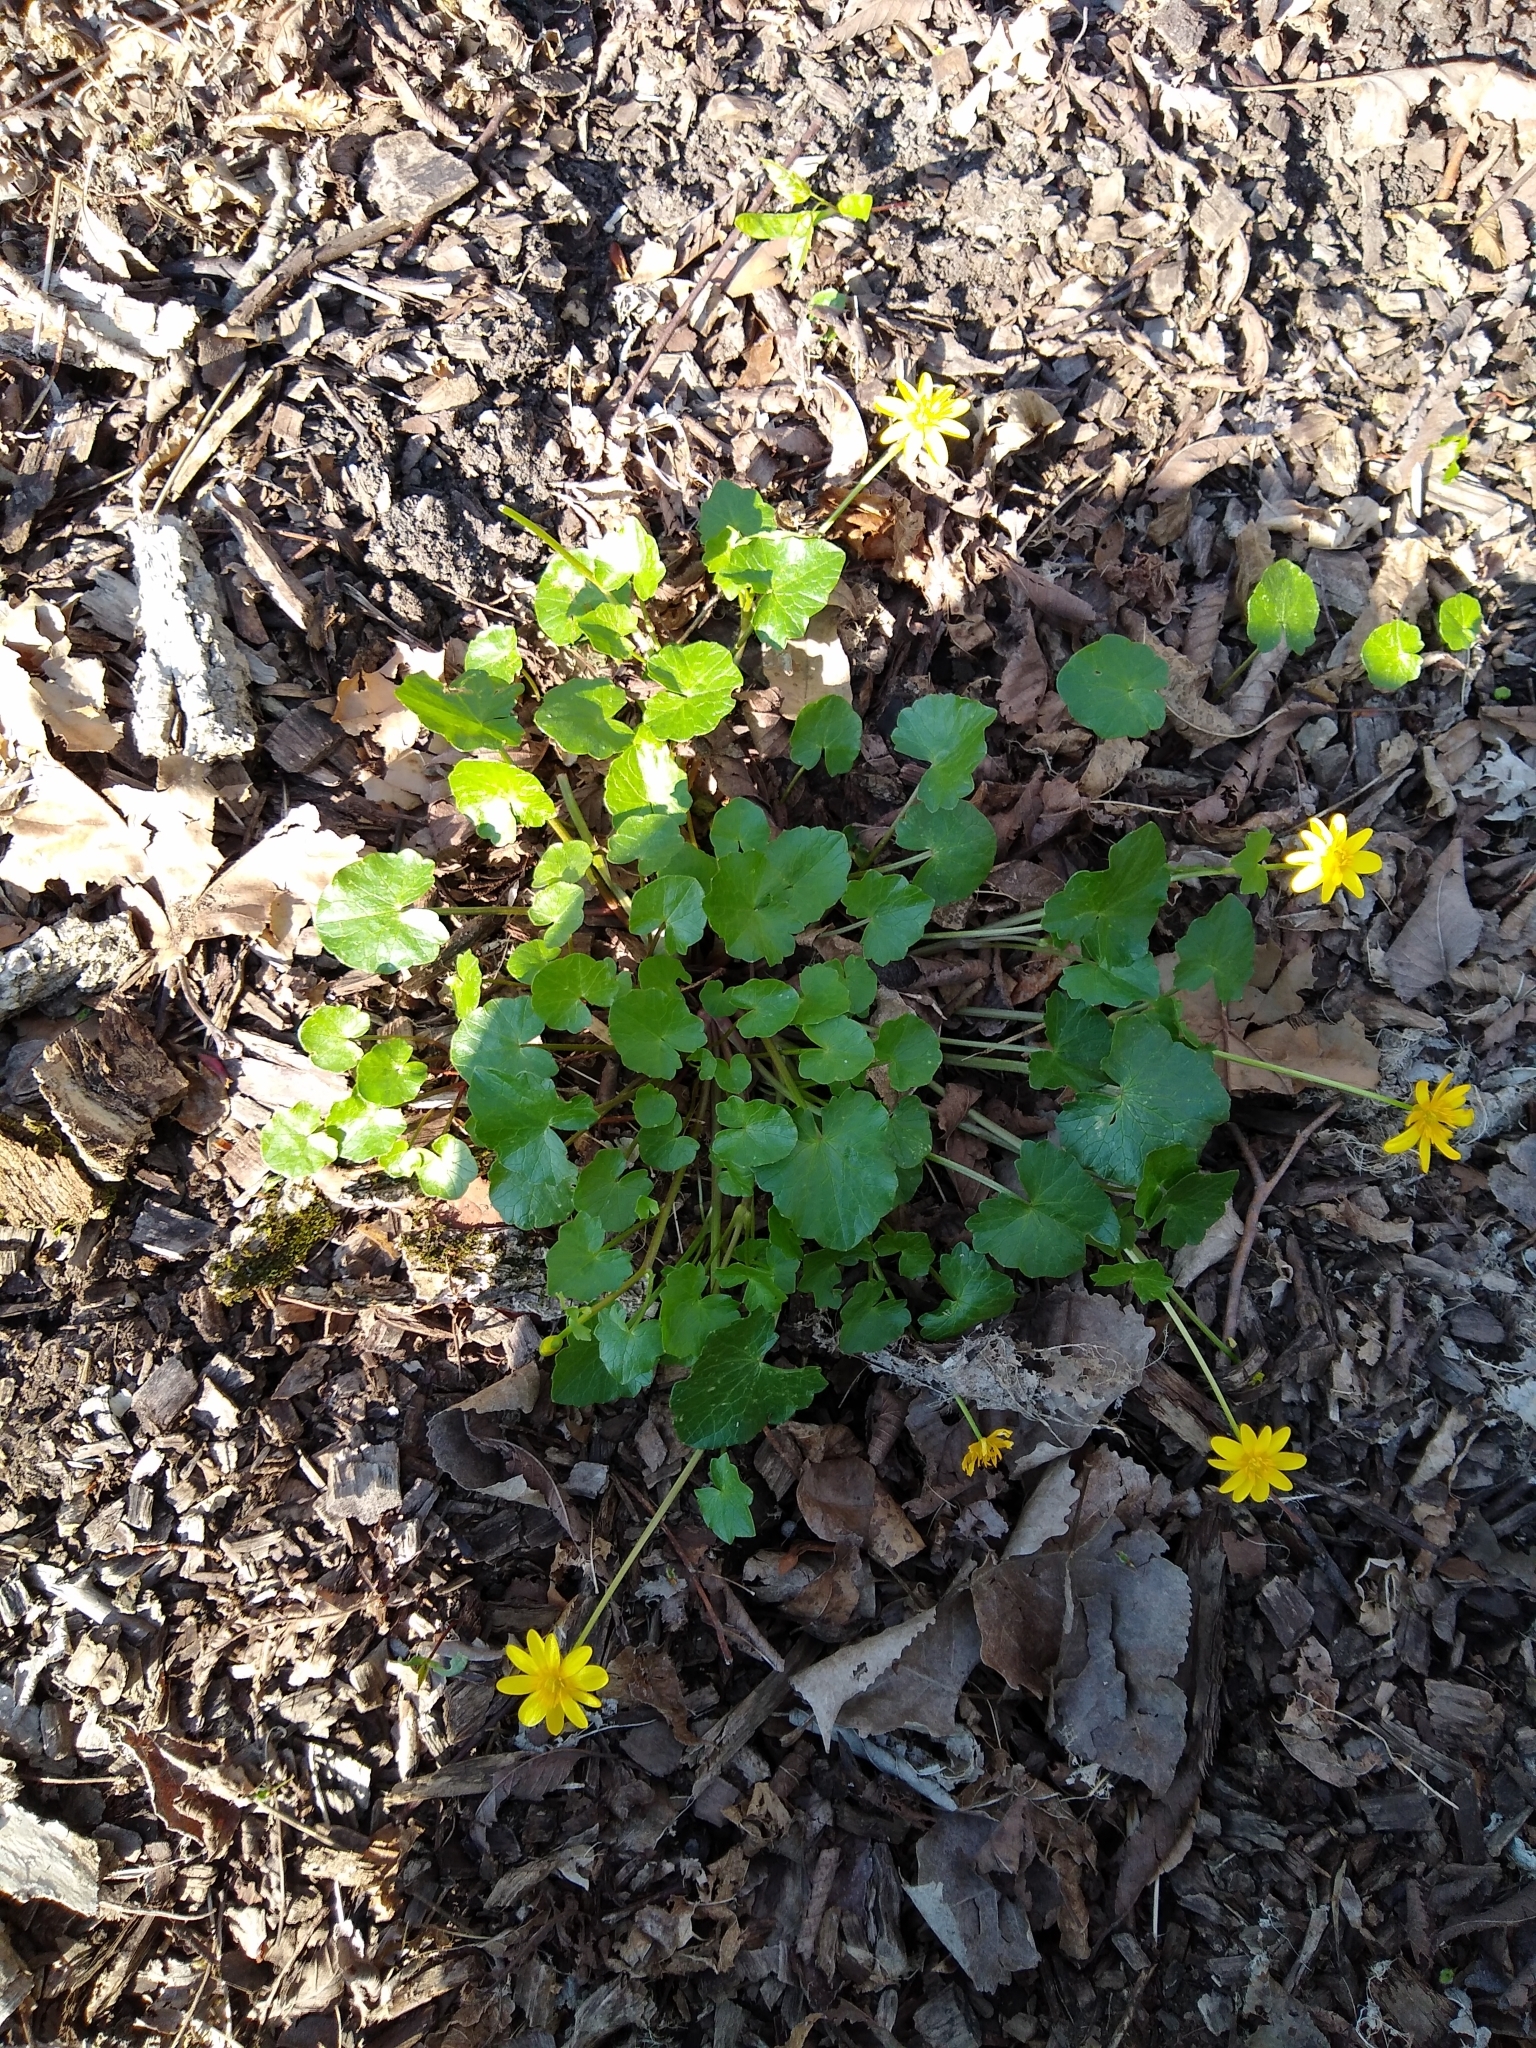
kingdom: Plantae
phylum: Tracheophyta
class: Magnoliopsida
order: Ranunculales
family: Ranunculaceae
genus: Ficaria
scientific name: Ficaria verna
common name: Lesser celandine
